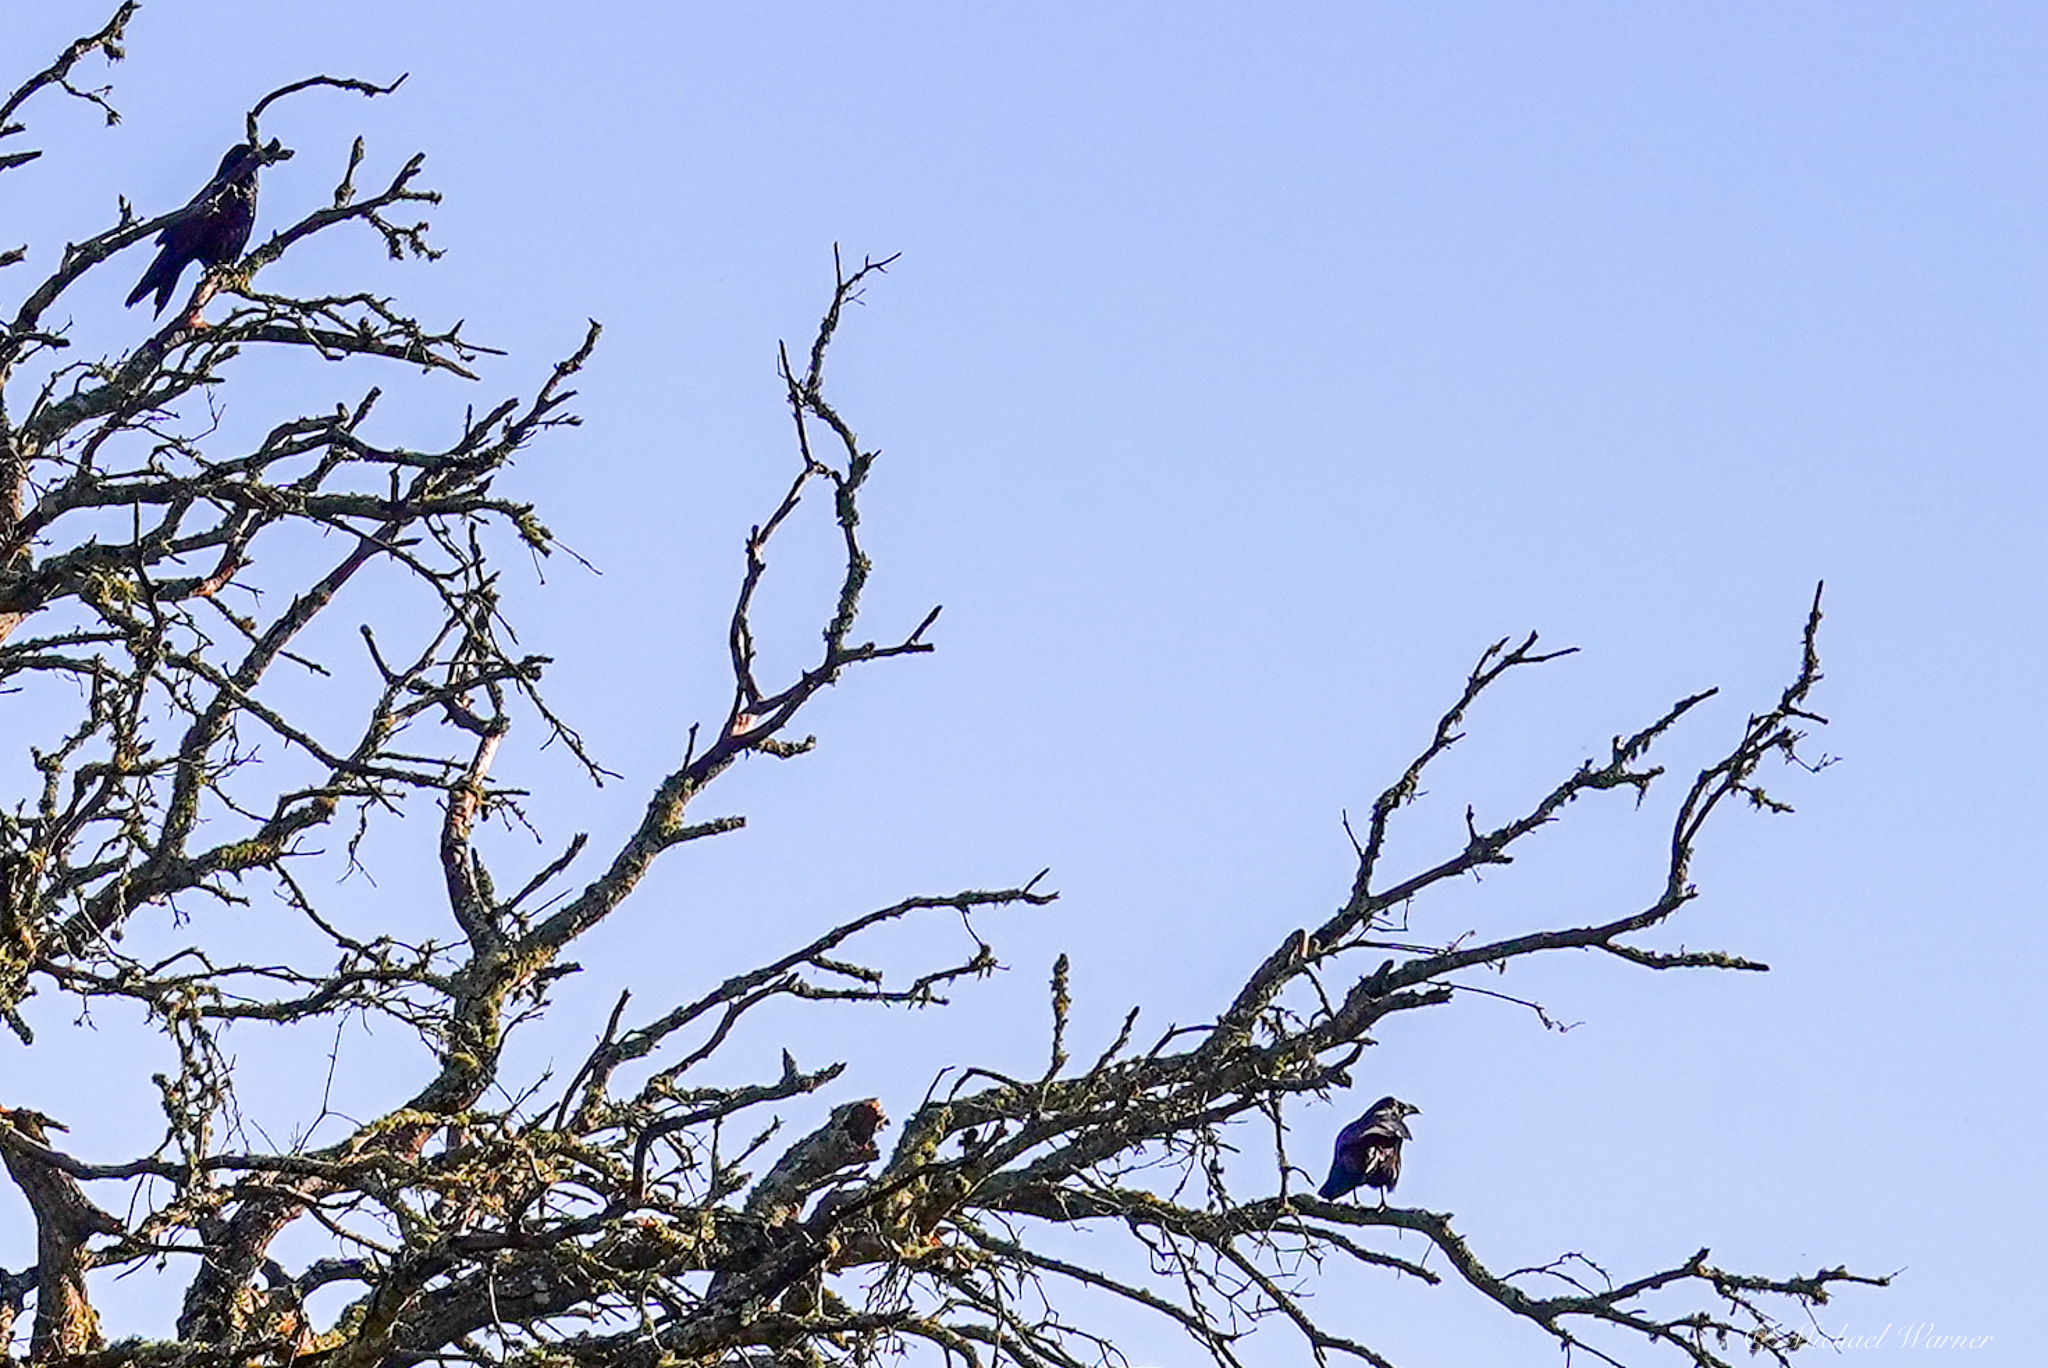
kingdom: Animalia
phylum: Chordata
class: Aves
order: Passeriformes
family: Corvidae
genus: Corvus
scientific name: Corvus corax
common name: Common raven
